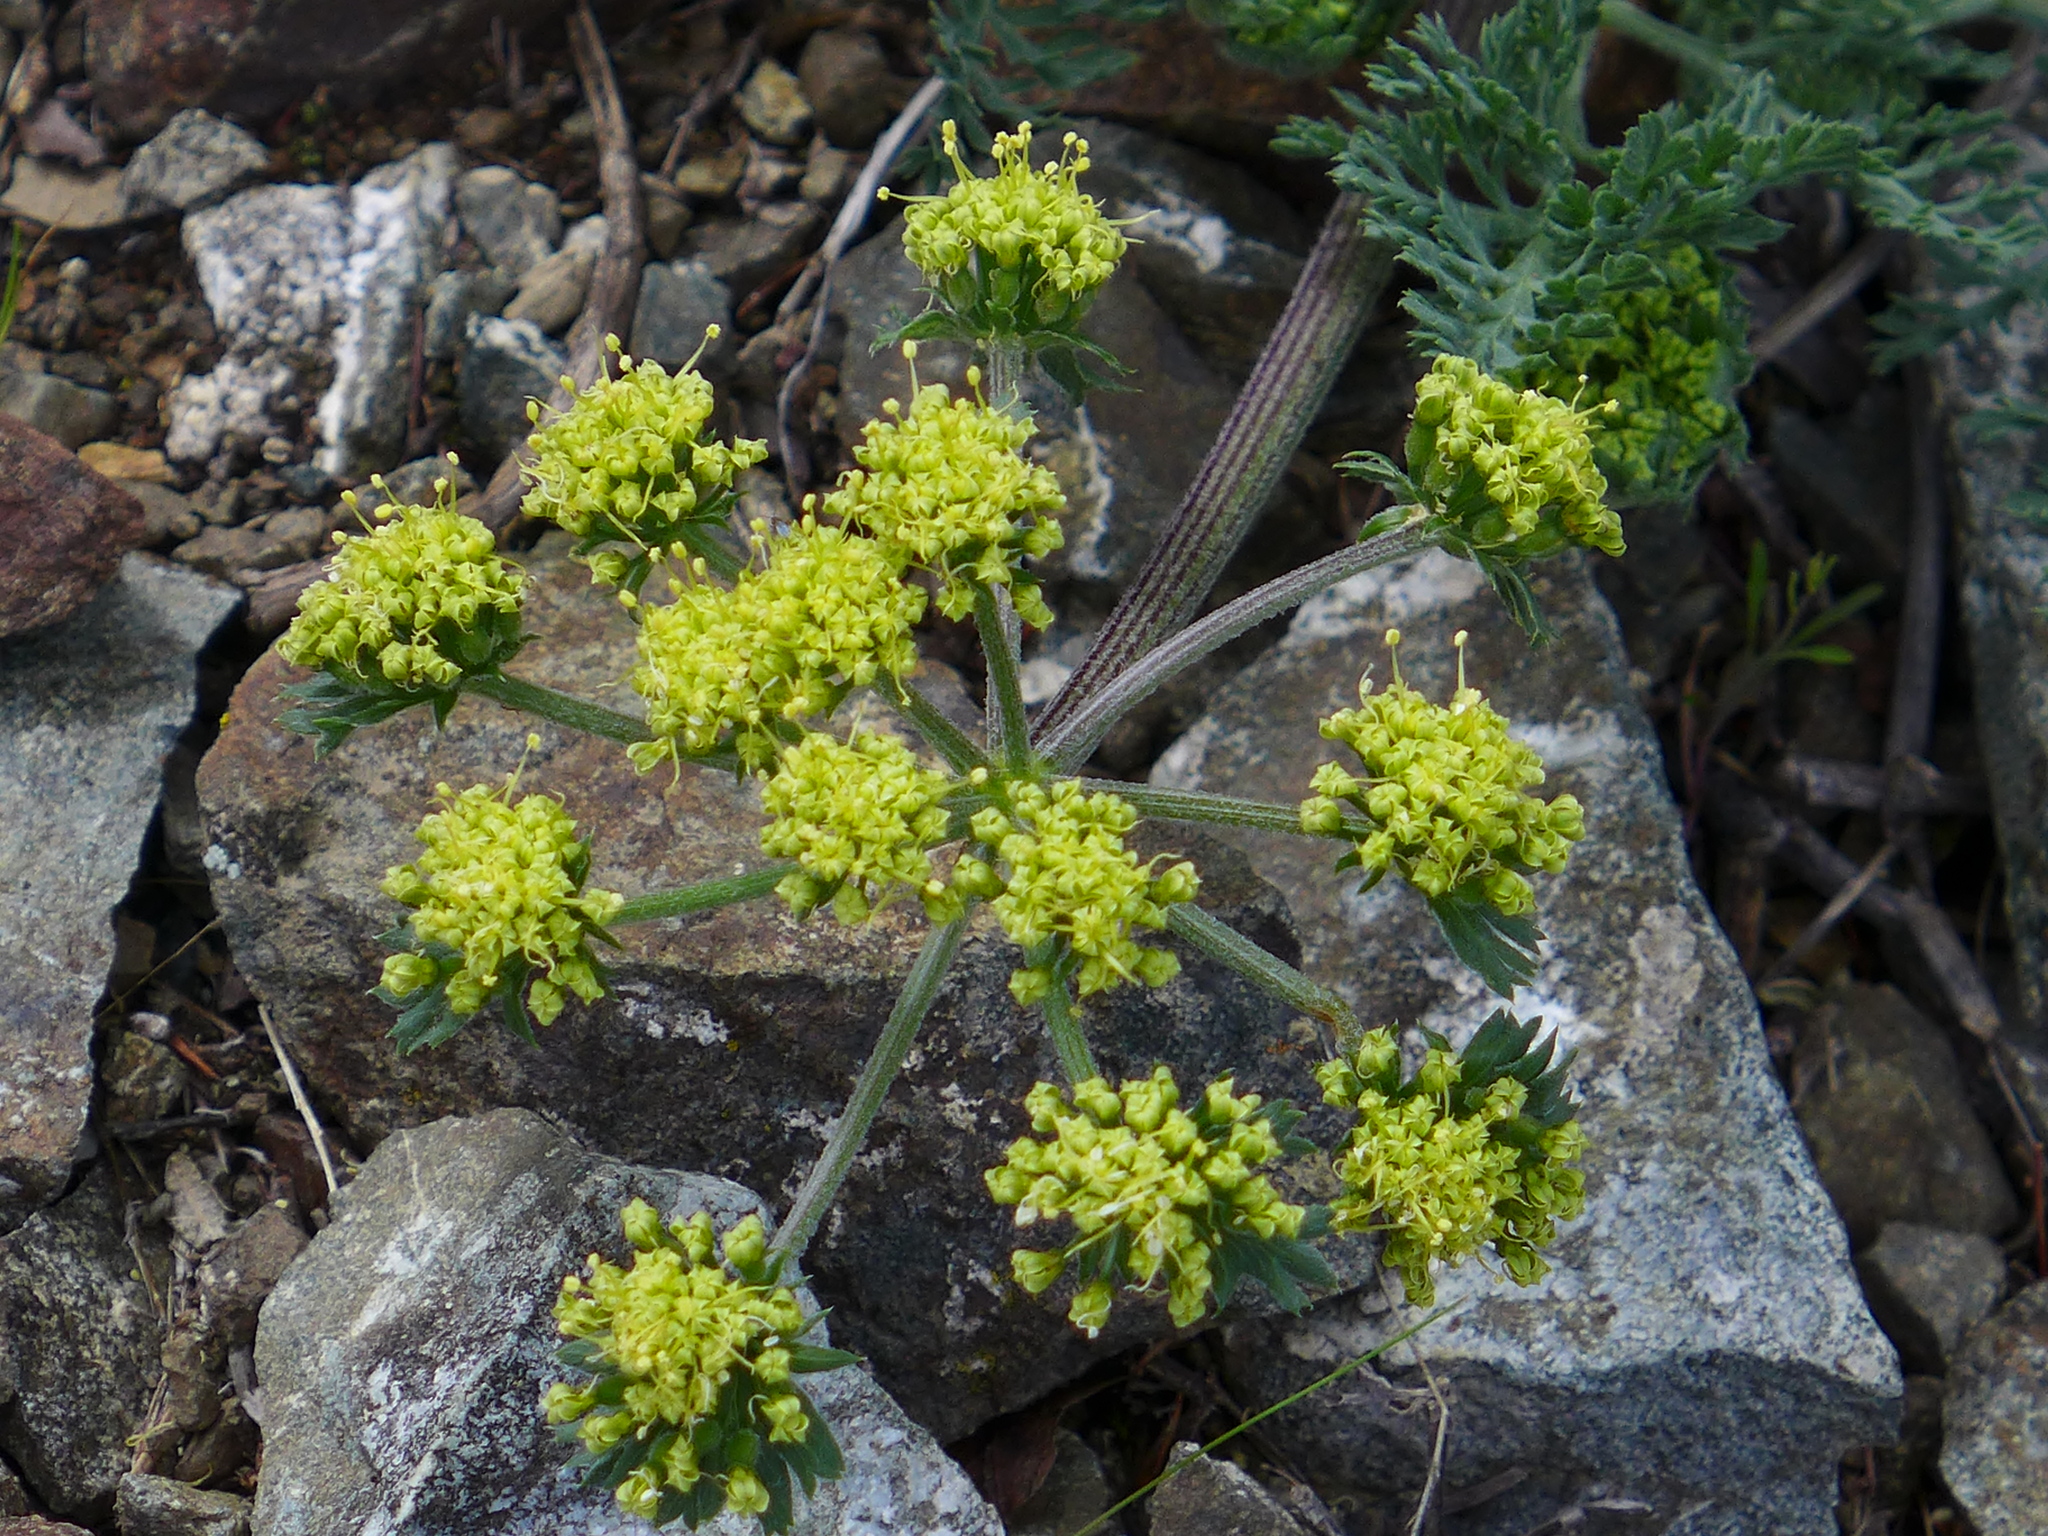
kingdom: Plantae
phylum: Tracheophyta
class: Magnoliopsida
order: Apiales
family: Apiaceae
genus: Lomatium
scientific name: Lomatium macrocarpum
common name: Big-seed biscuitroot
